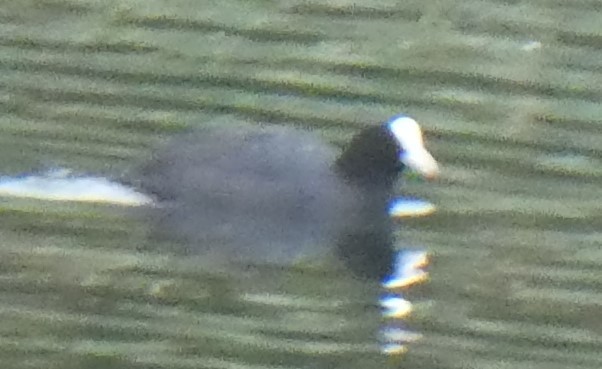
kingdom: Animalia
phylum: Chordata
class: Aves
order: Gruiformes
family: Rallidae
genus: Fulica
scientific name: Fulica atra
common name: Eurasian coot
